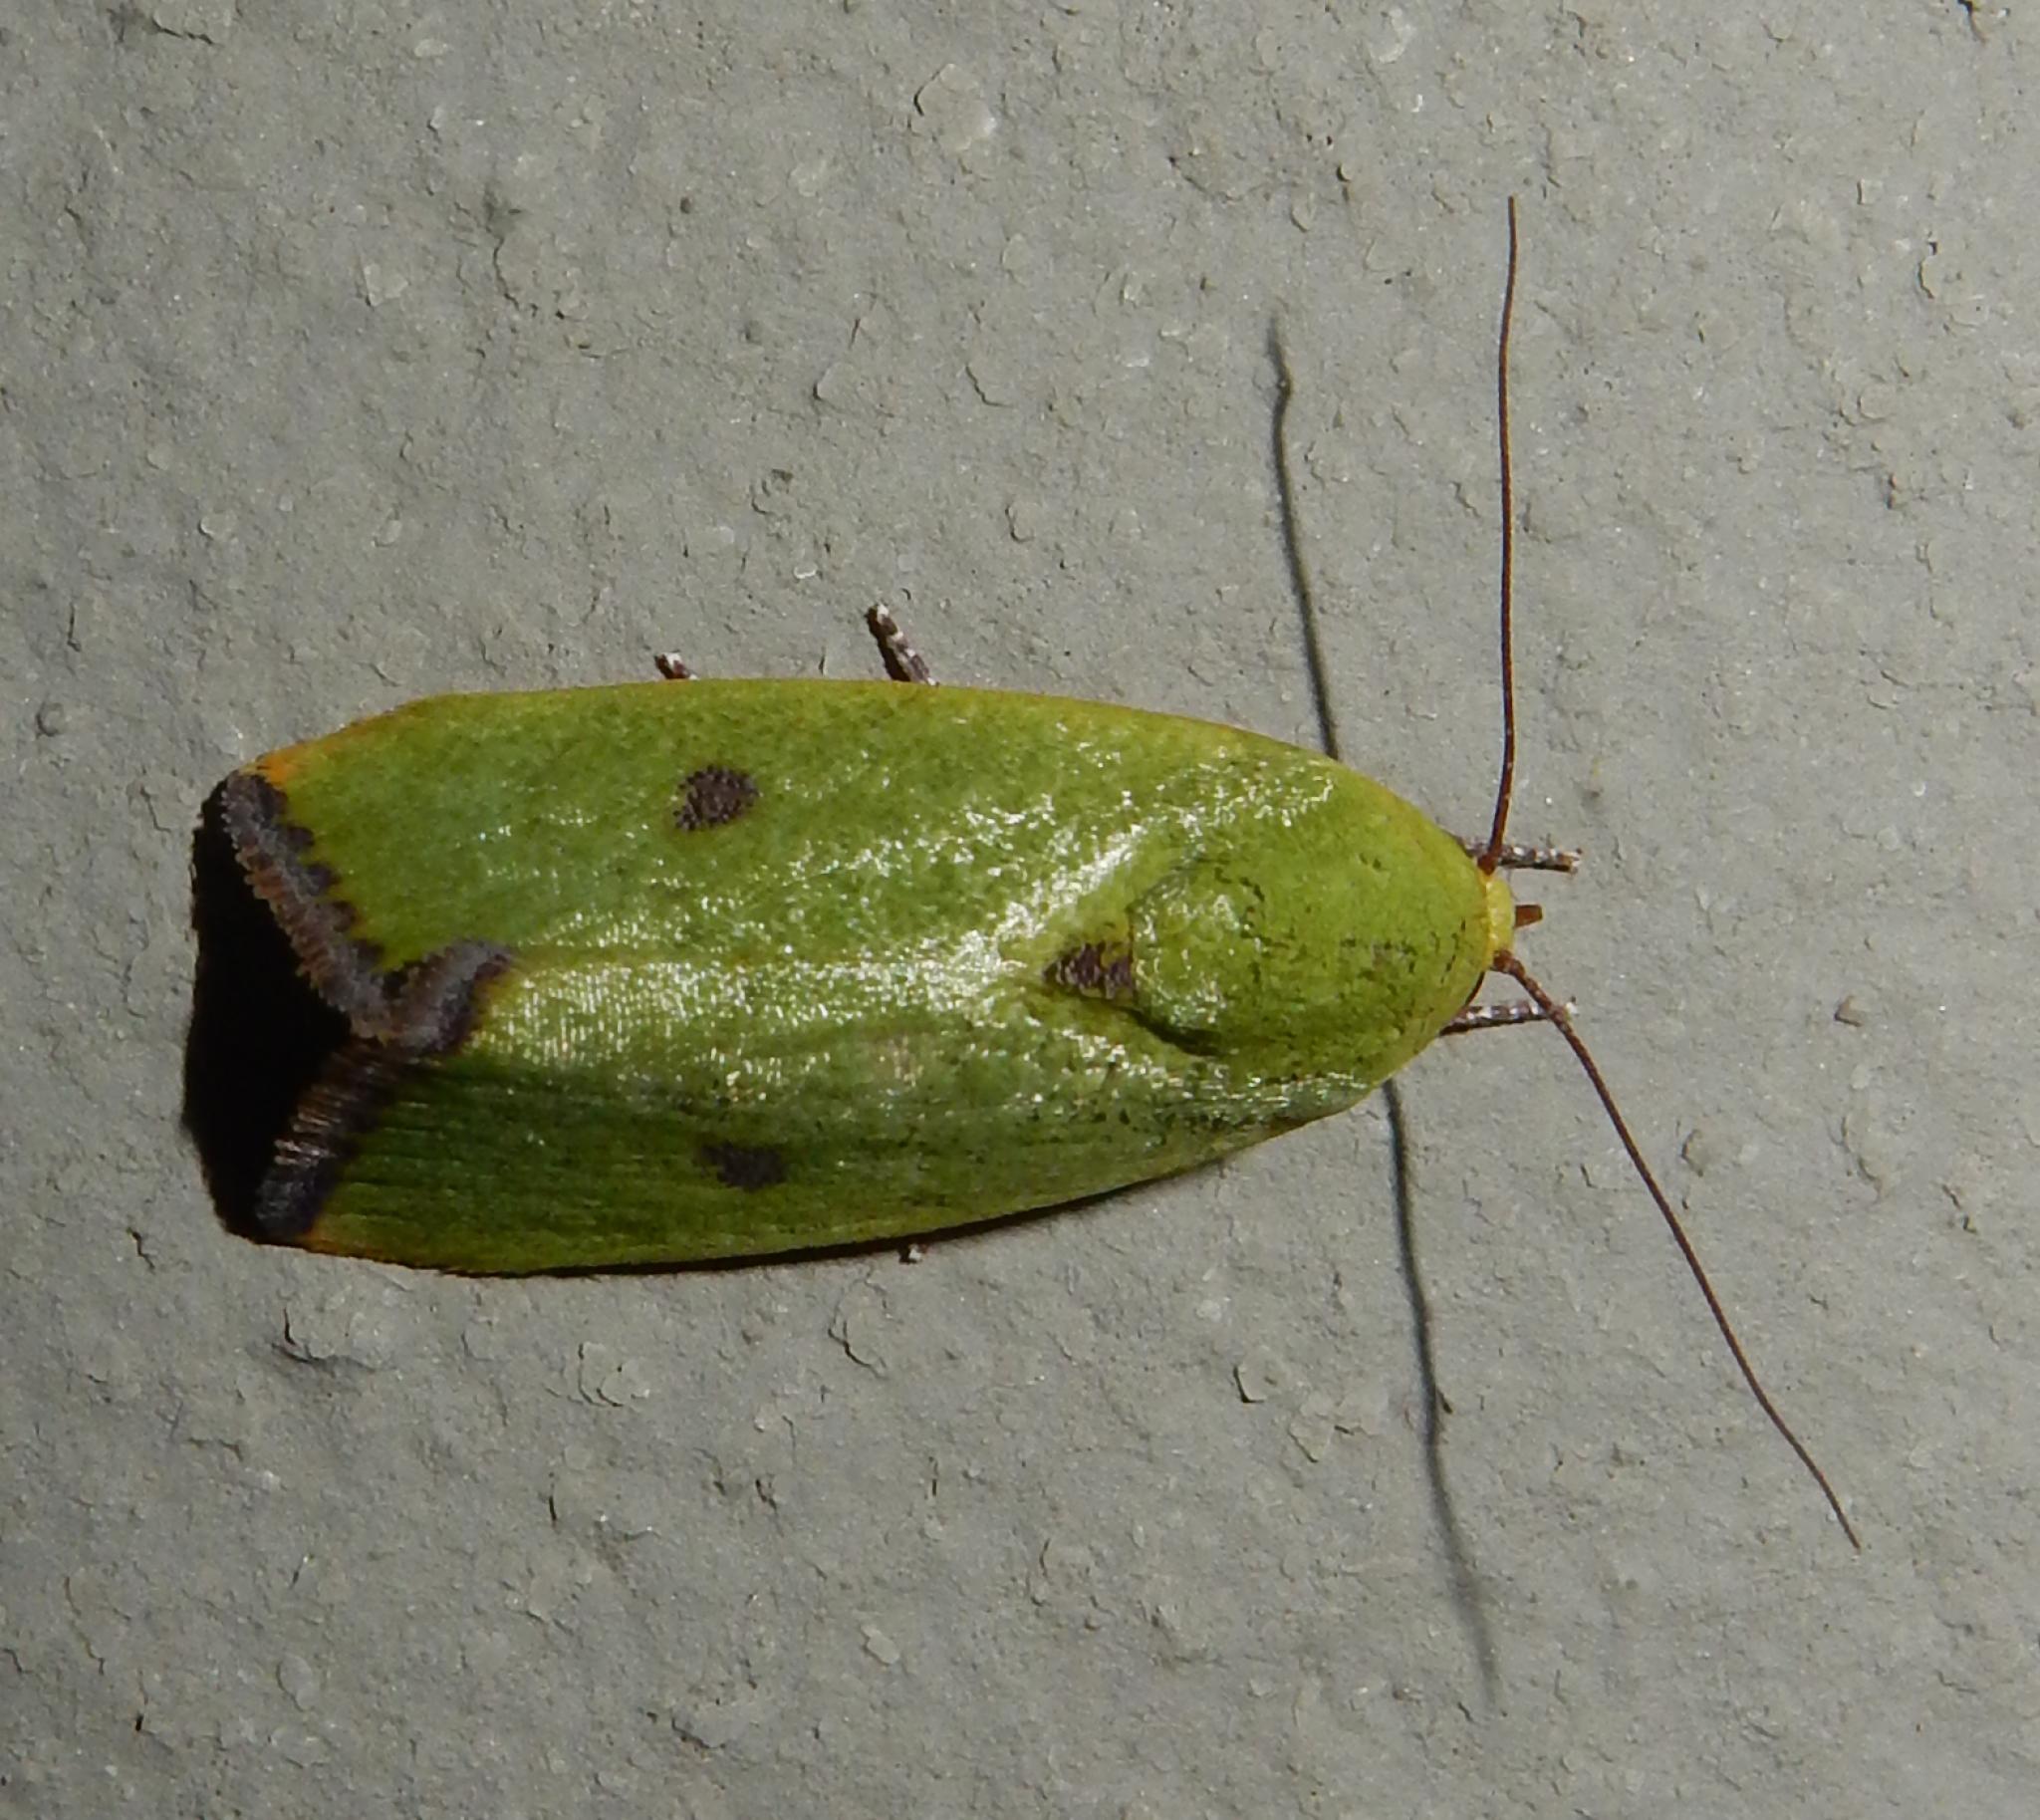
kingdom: Animalia
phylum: Arthropoda
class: Insecta
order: Lepidoptera
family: Nolidae
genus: Earias
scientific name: Earias biplaga
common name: Spiny bollworm
